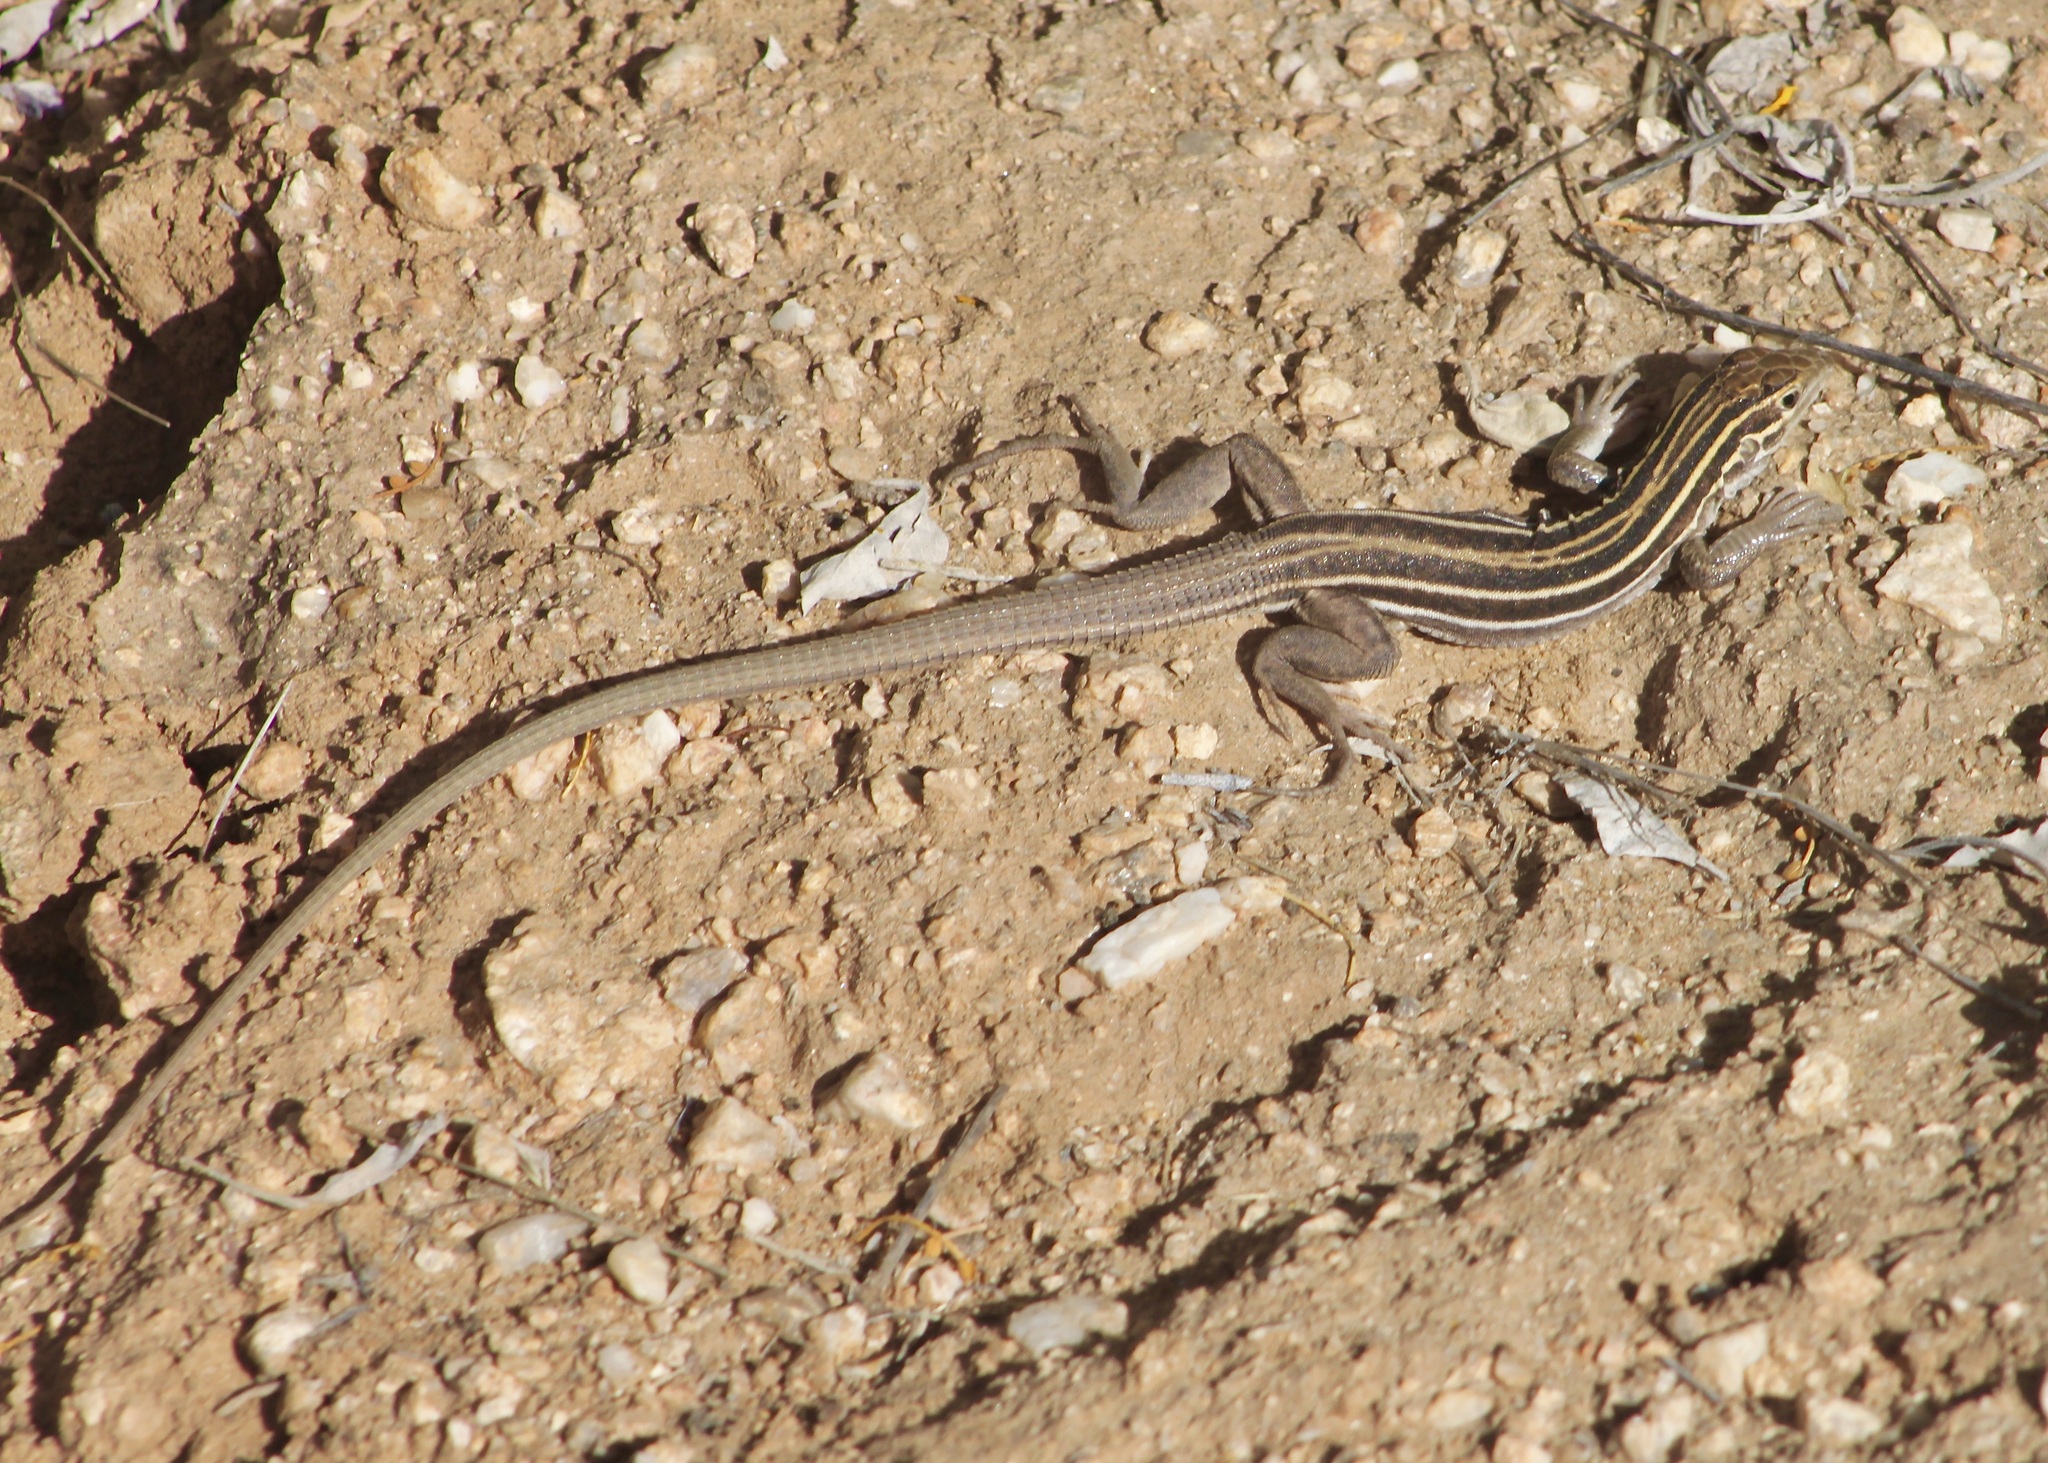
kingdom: Animalia
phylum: Chordata
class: Squamata
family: Teiidae
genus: Aspidoscelis
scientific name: Aspidoscelis sonorae
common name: Sonoran spotted whiptail
